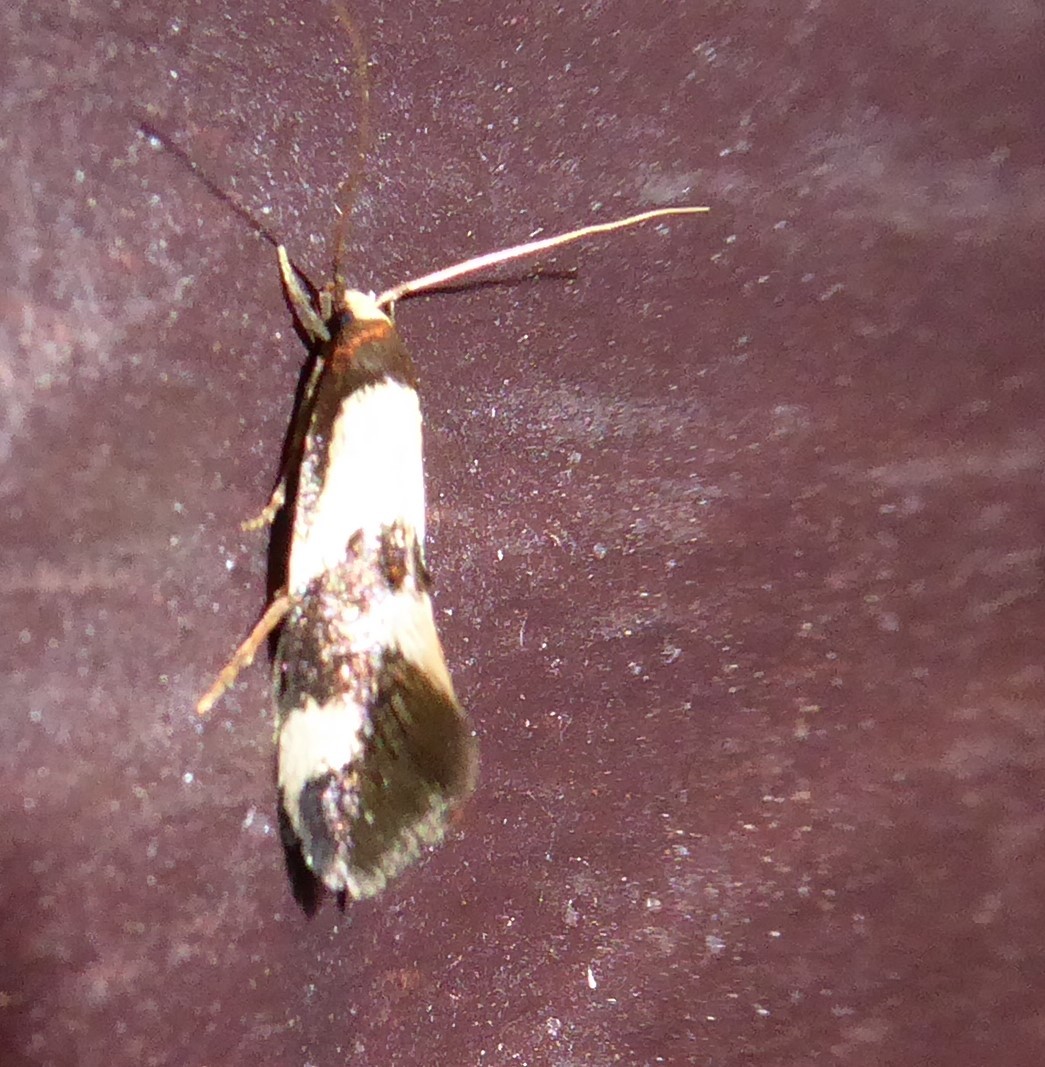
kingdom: Animalia
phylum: Arthropoda
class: Insecta
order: Lepidoptera
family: Tineidae
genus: Opogona
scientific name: Opogona comptella
